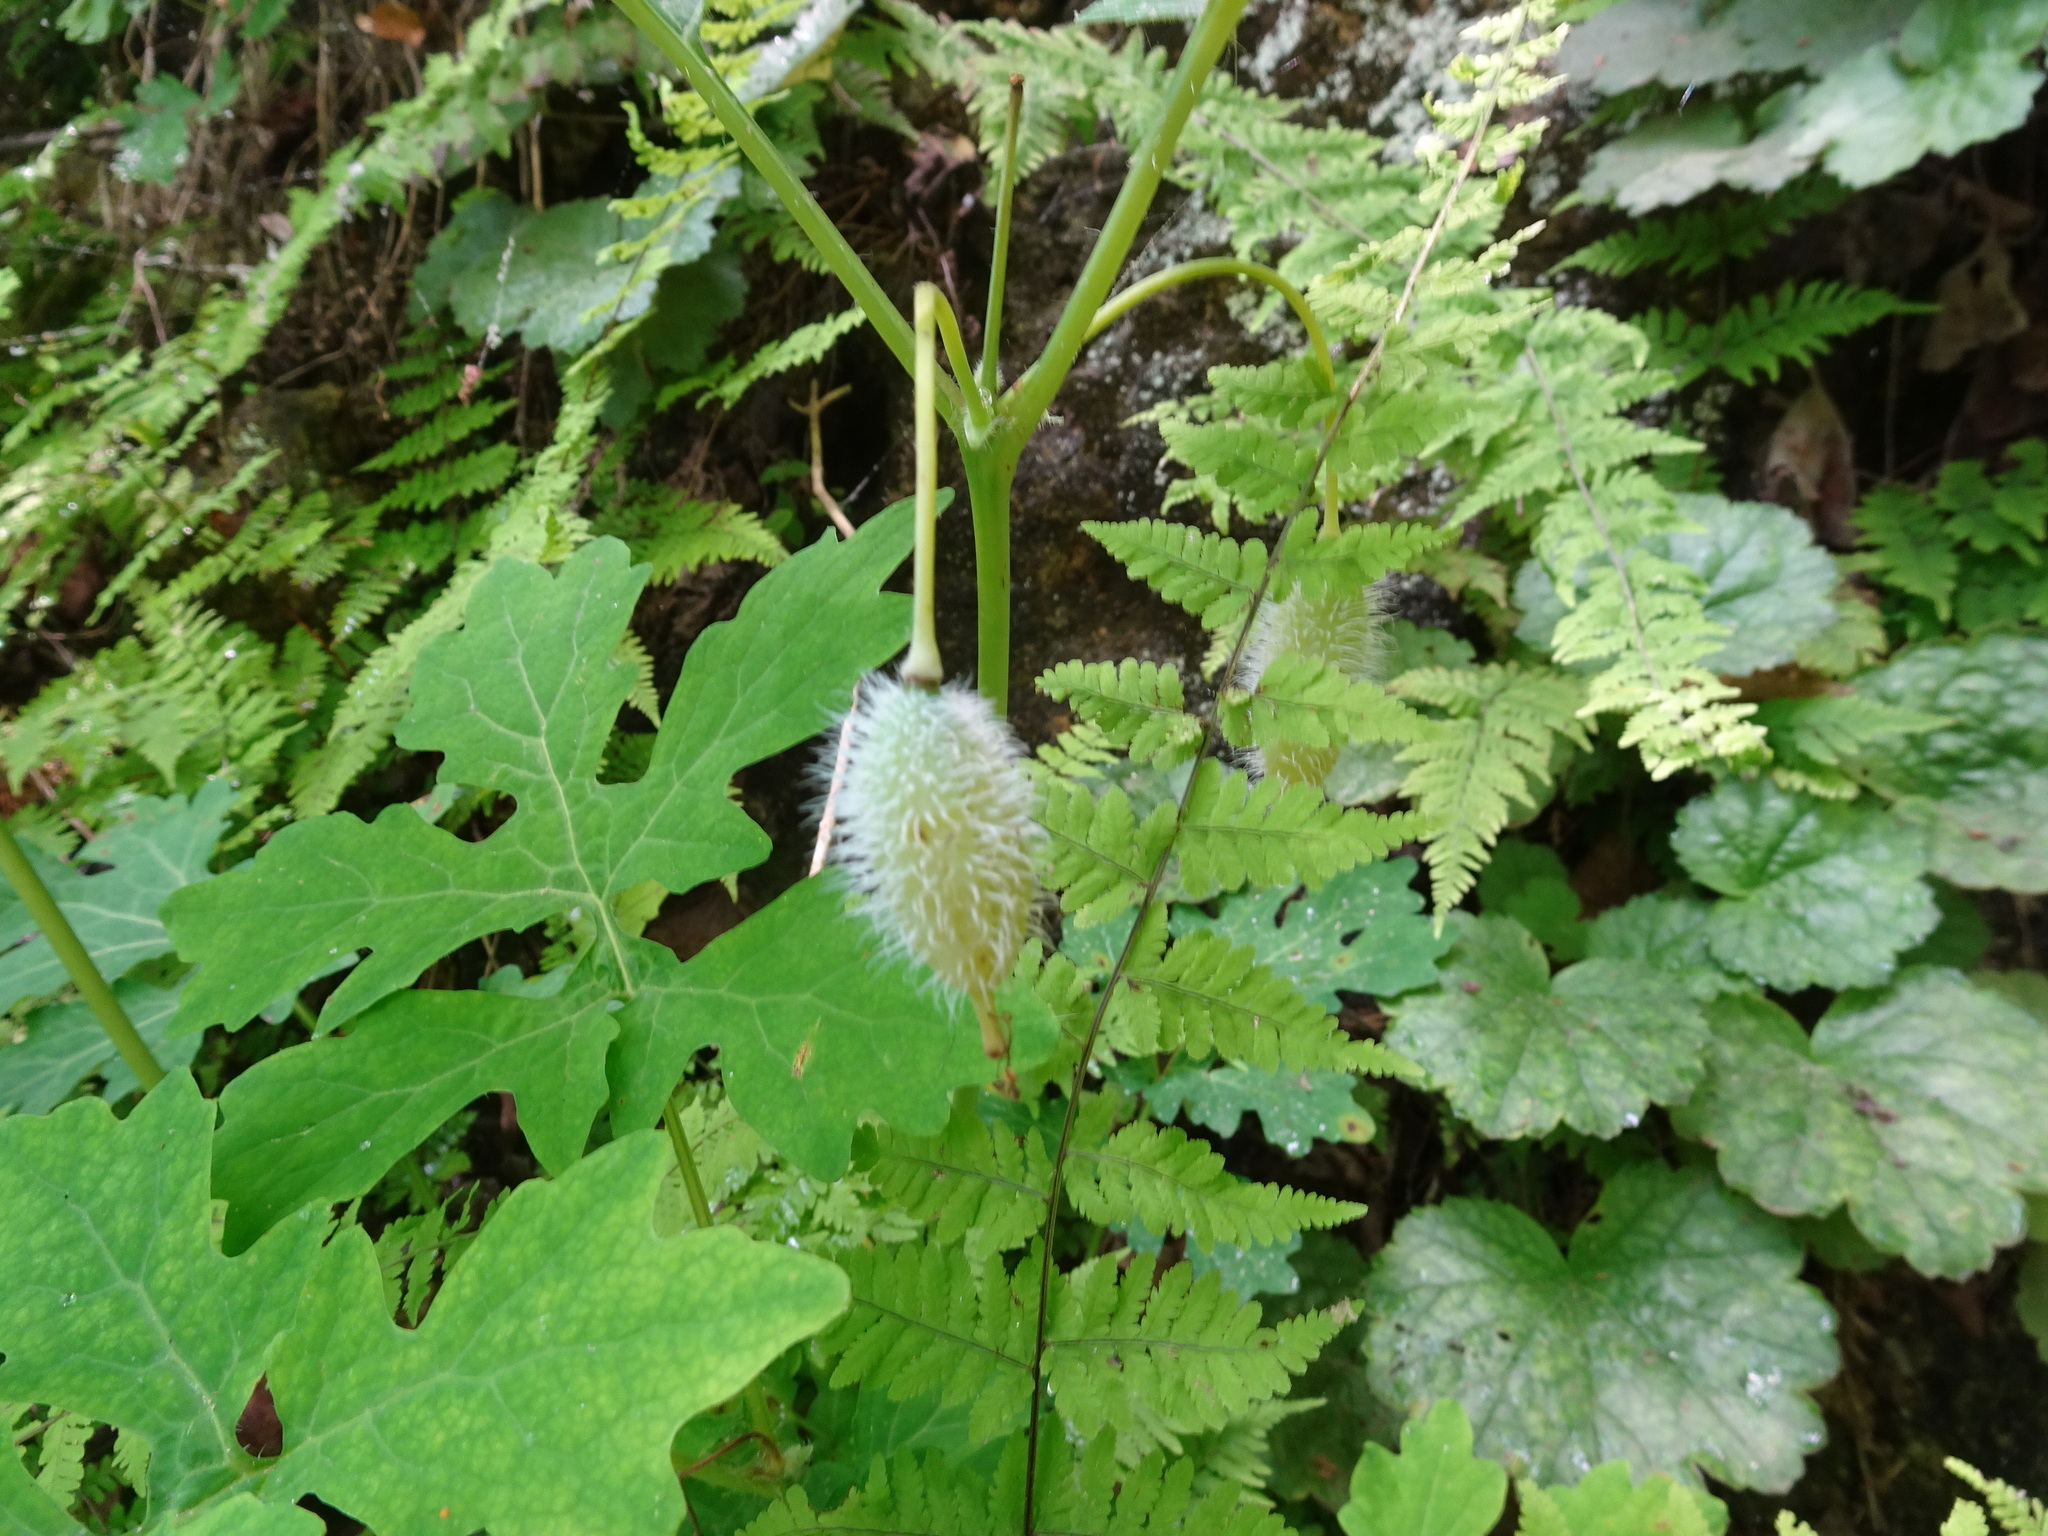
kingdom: Plantae
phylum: Tracheophyta
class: Magnoliopsida
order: Ranunculales
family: Papaveraceae
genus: Stylophorum
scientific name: Stylophorum diphyllum
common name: Celandine poppy
